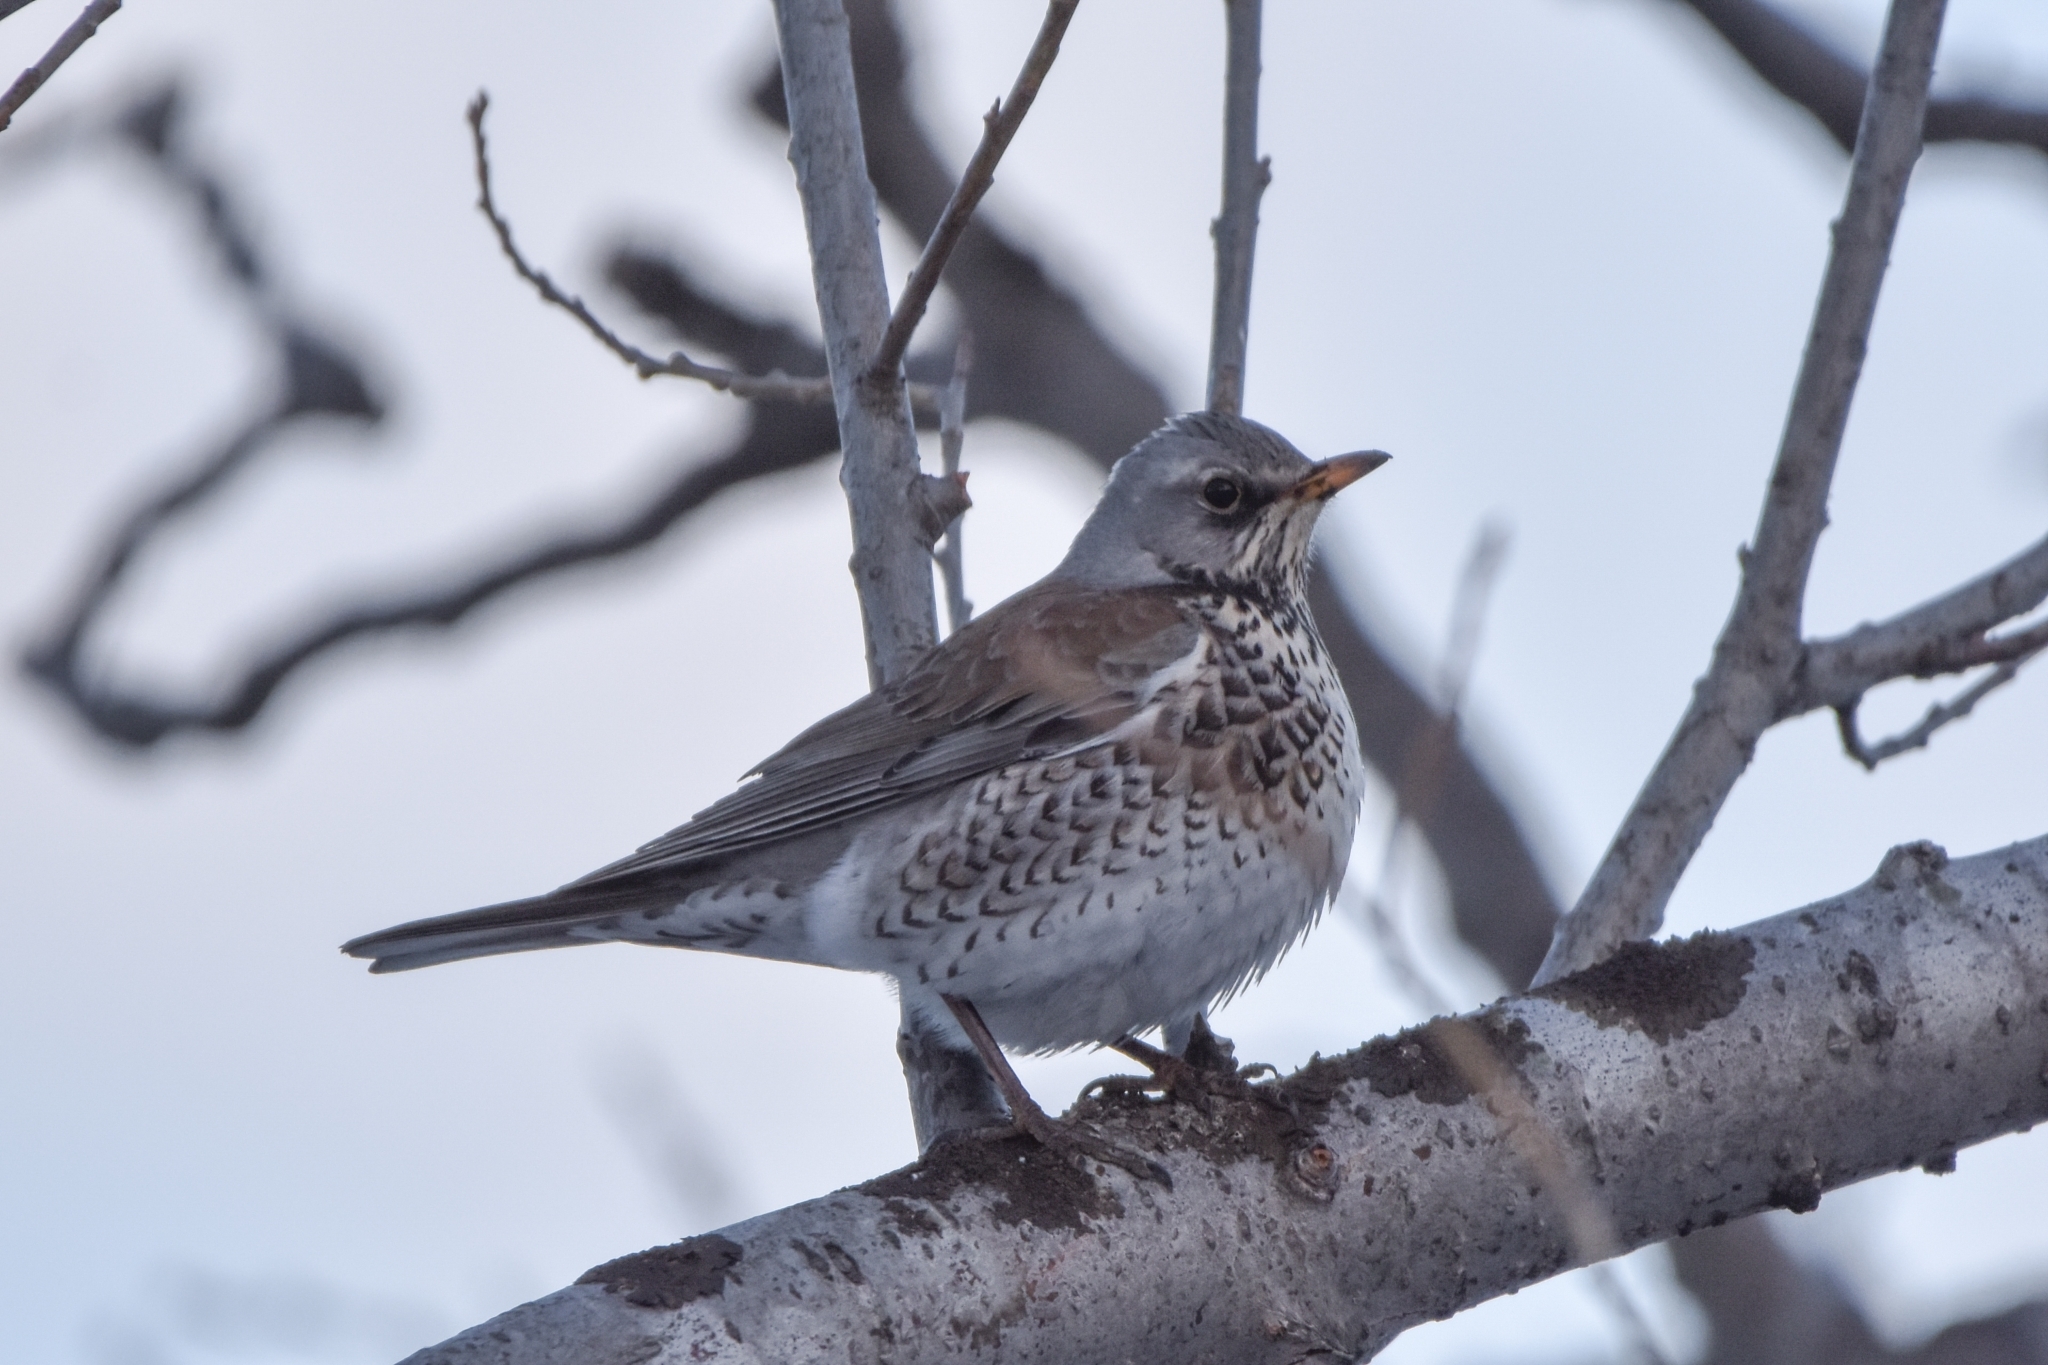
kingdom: Animalia
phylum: Chordata
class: Aves
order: Passeriformes
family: Turdidae
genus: Turdus
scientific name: Turdus pilaris
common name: Fieldfare
